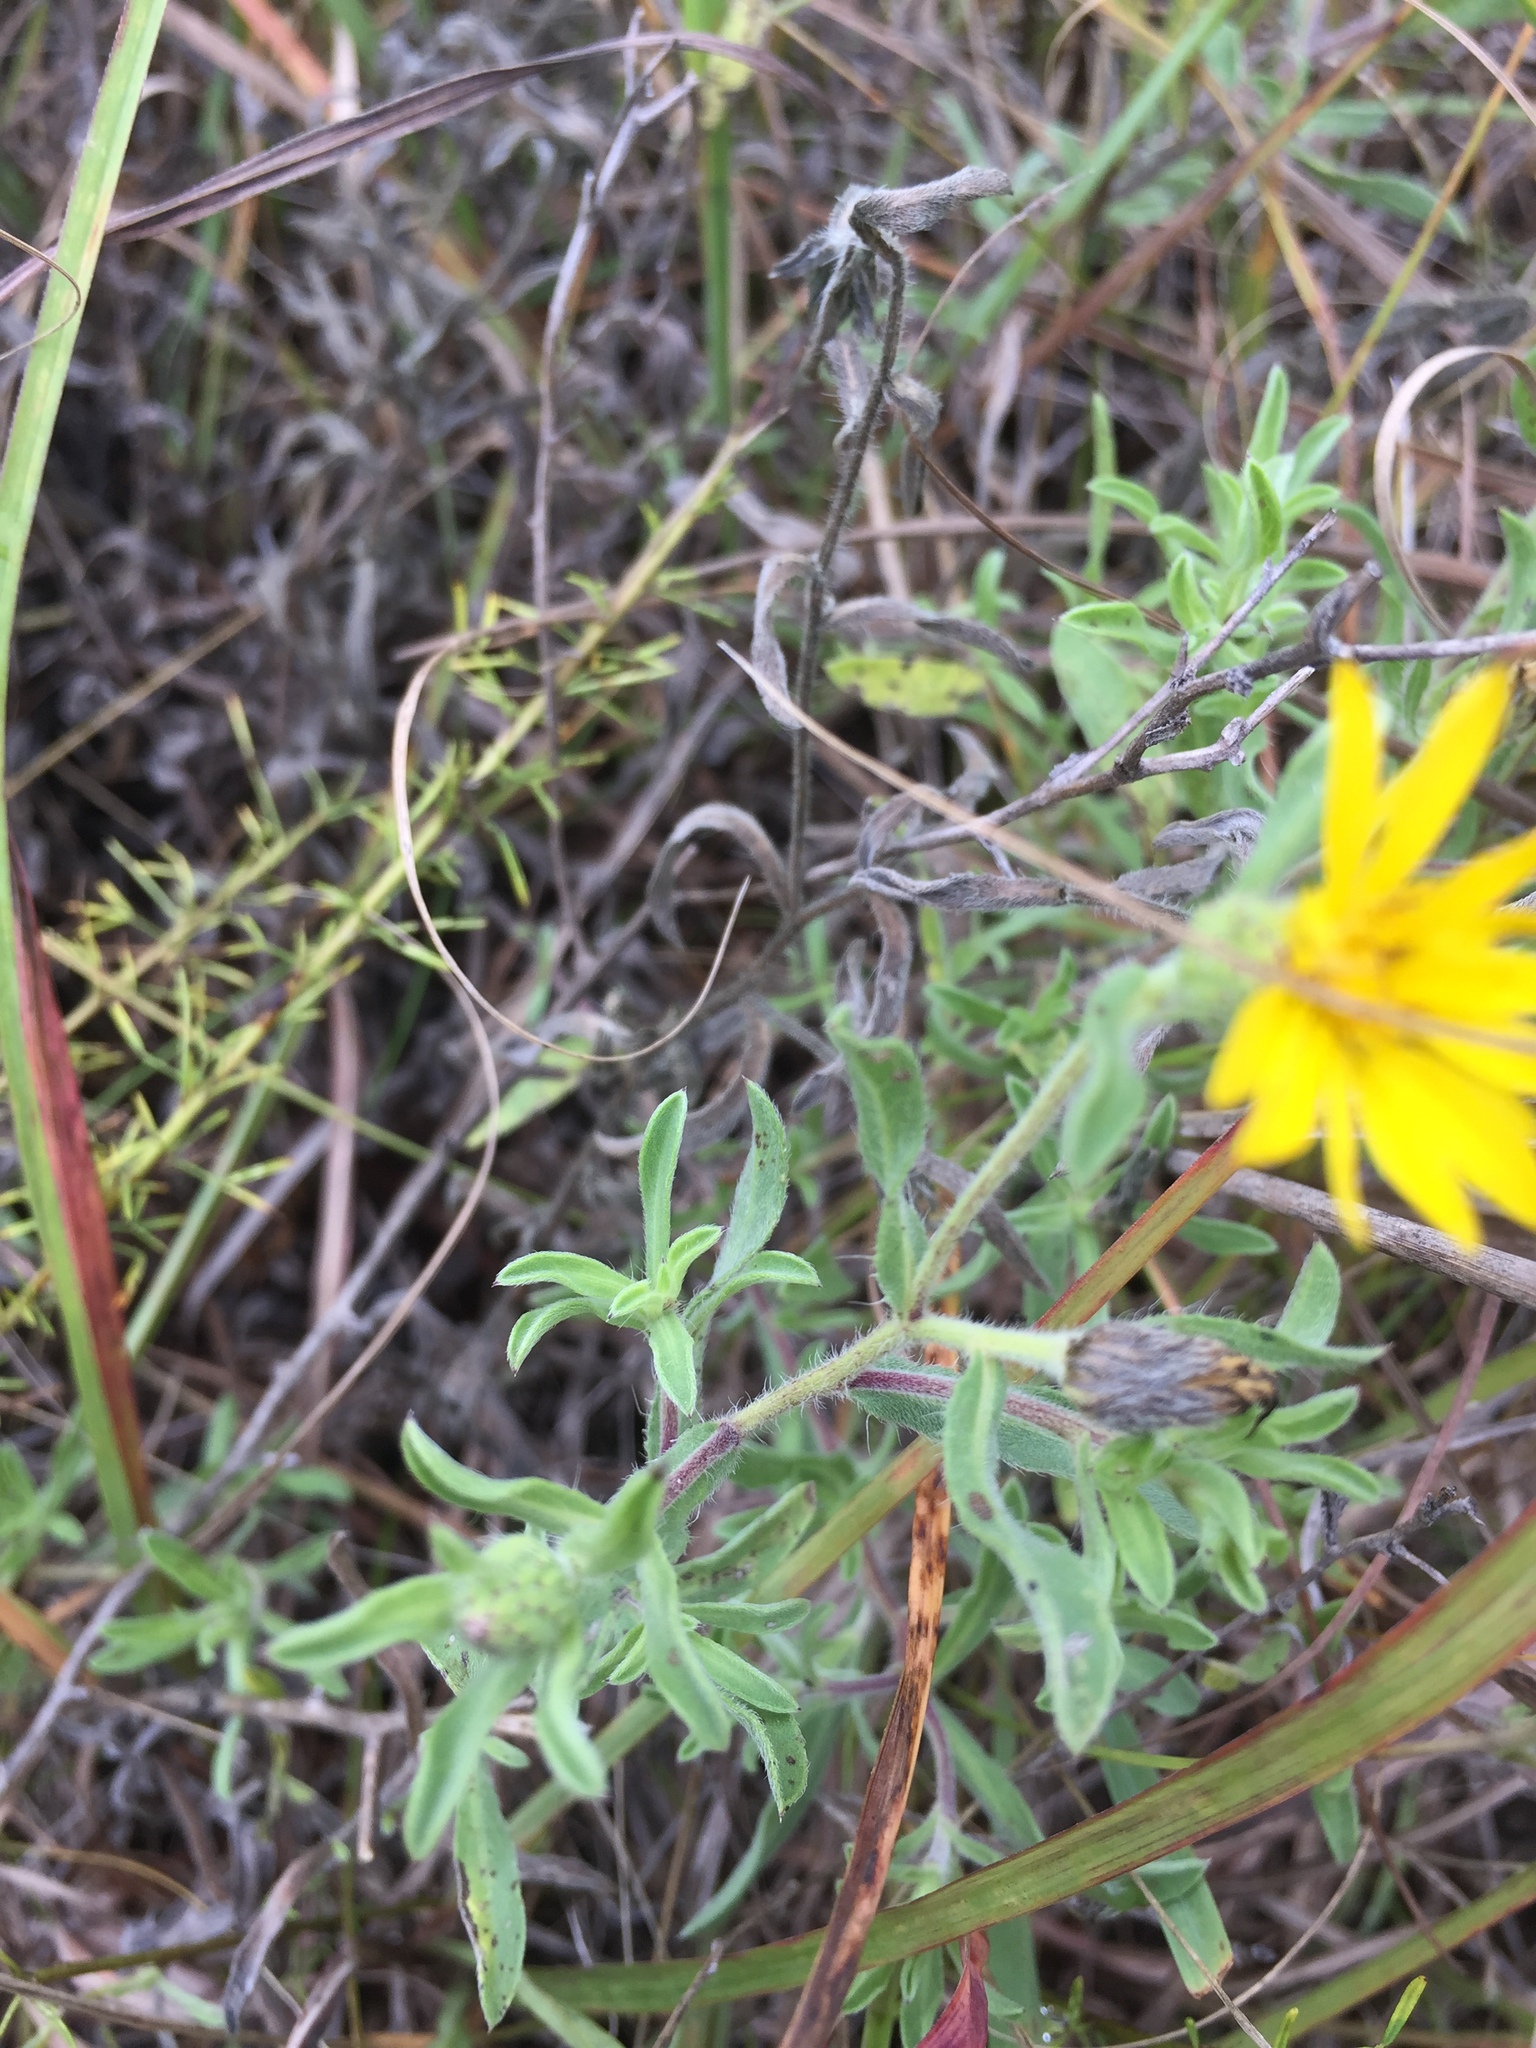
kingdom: Plantae
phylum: Tracheophyta
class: Magnoliopsida
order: Asterales
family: Asteraceae
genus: Heterotheca
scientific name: Heterotheca villosa
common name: Hairy false goldenaster
